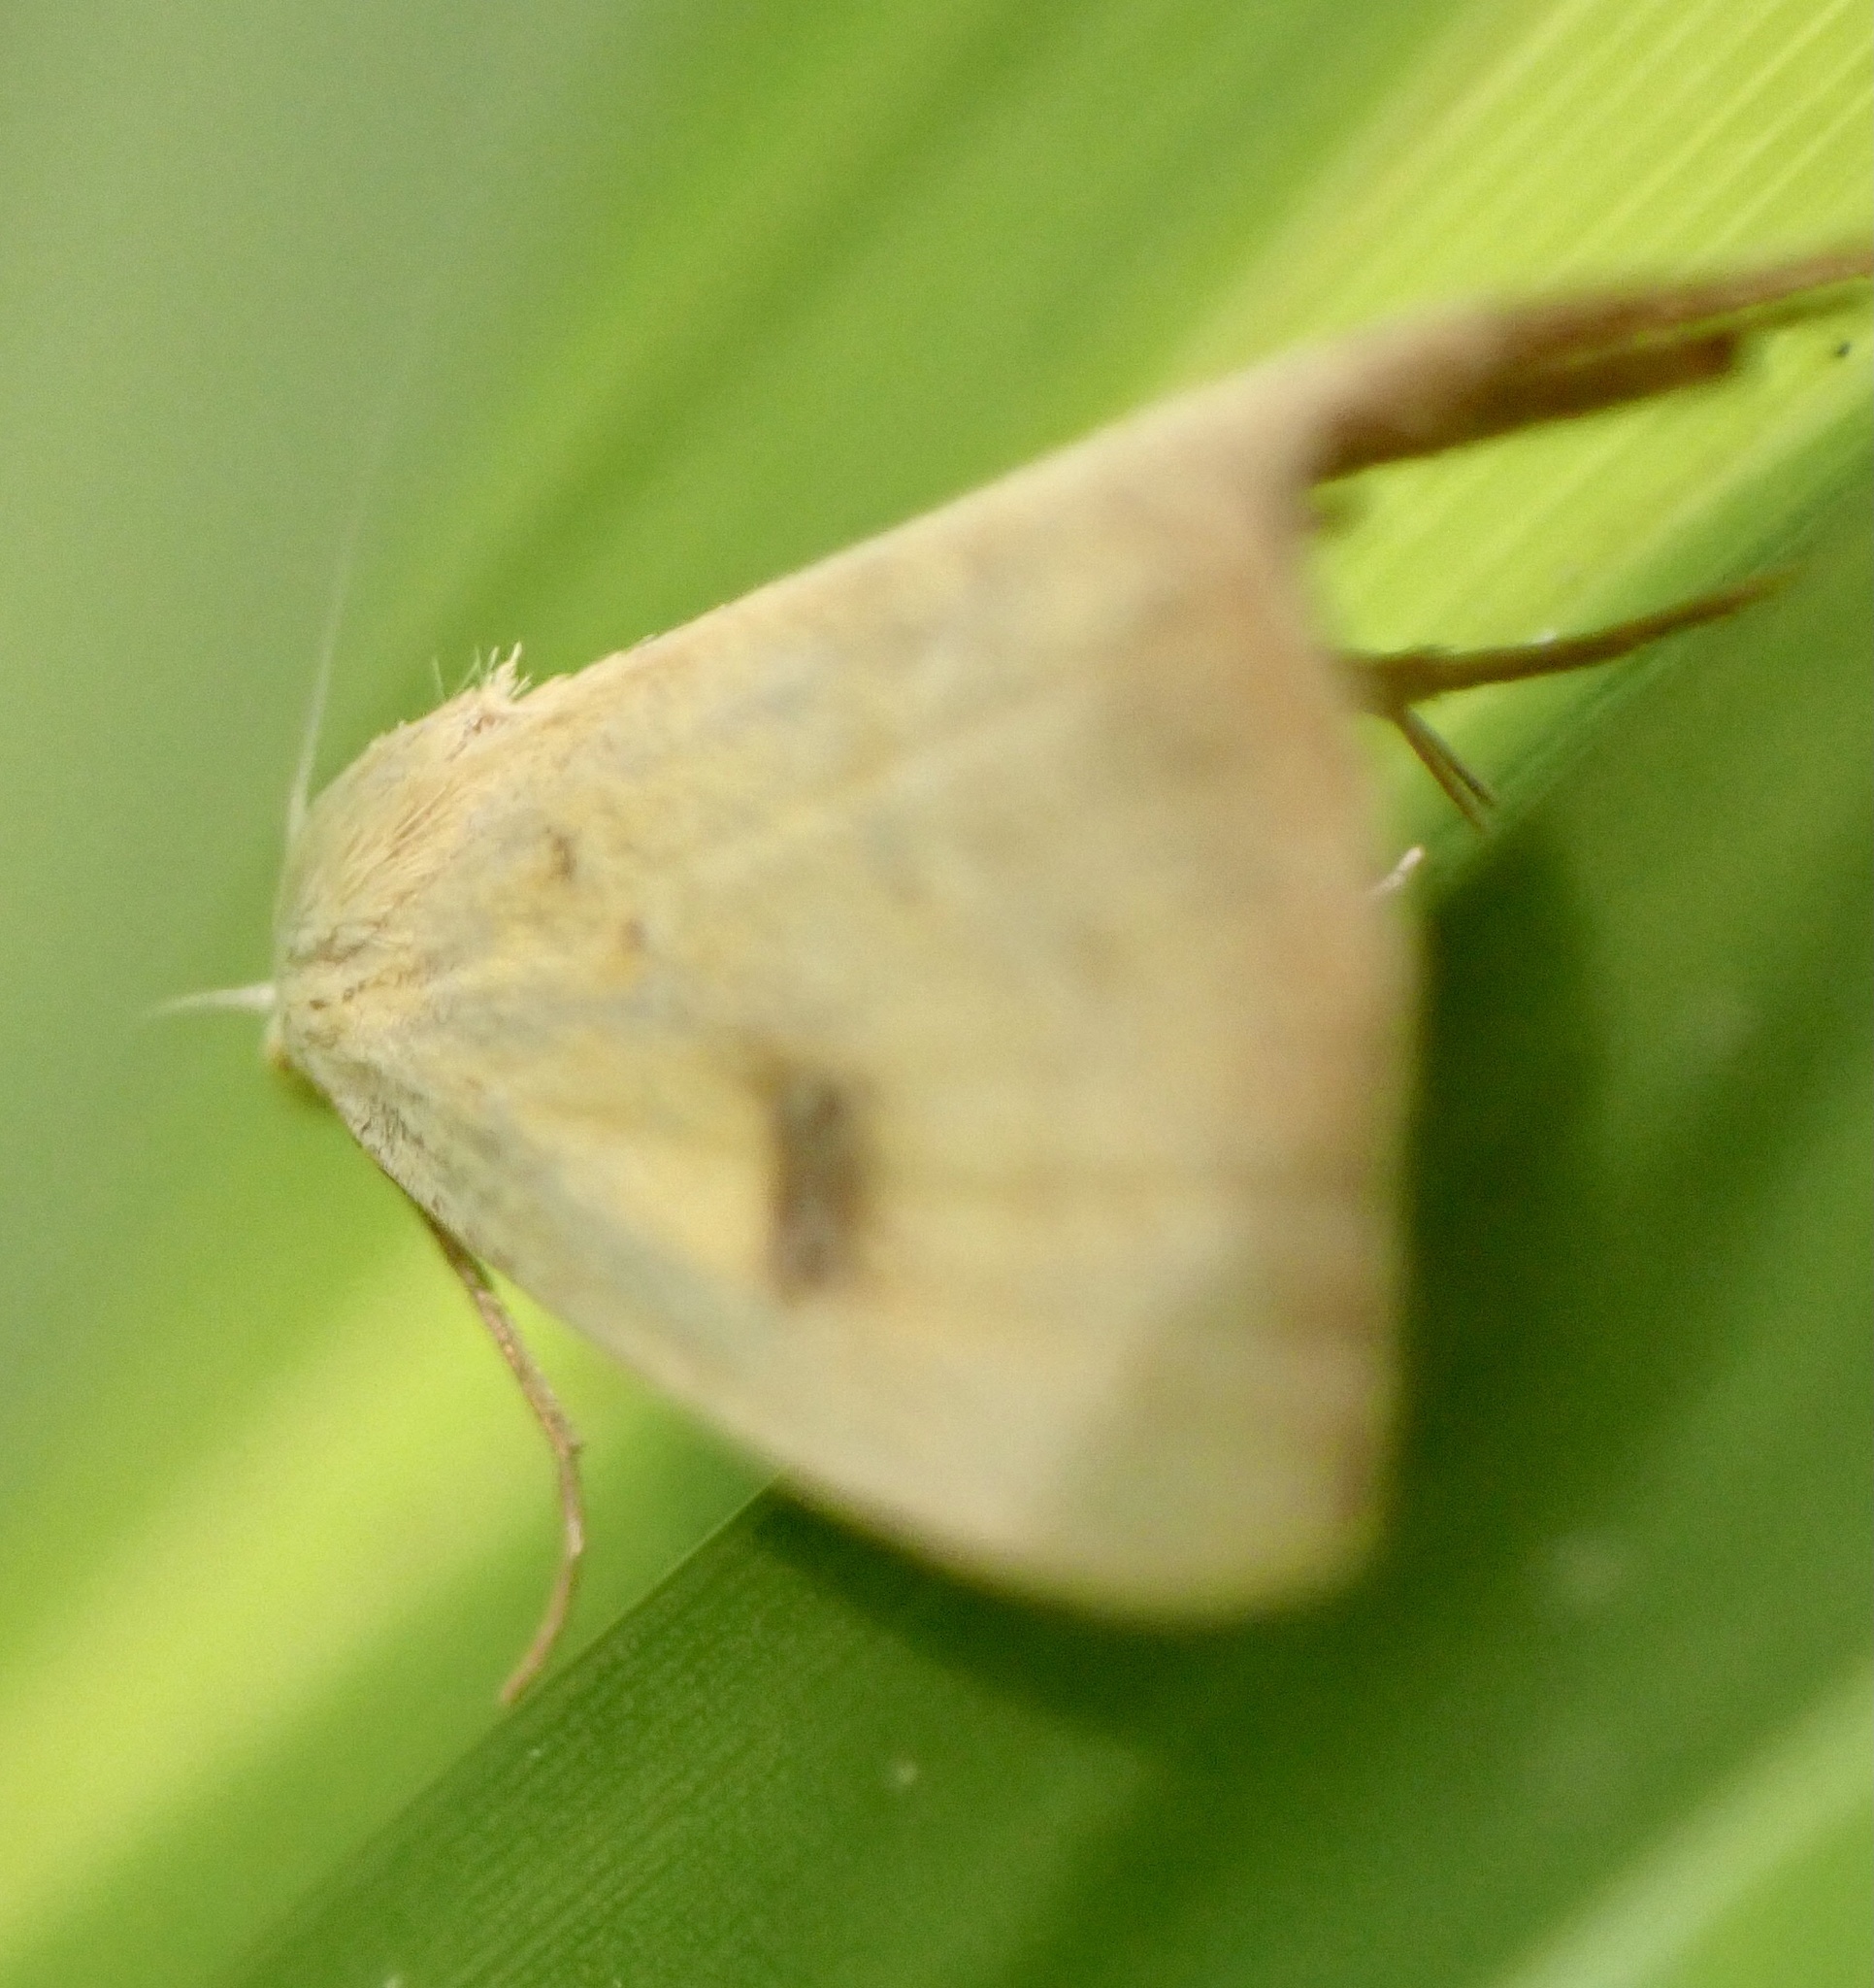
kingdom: Animalia
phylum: Arthropoda
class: Insecta
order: Lepidoptera
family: Erebidae
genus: Rivula
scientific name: Rivula sericealis
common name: Straw dot
